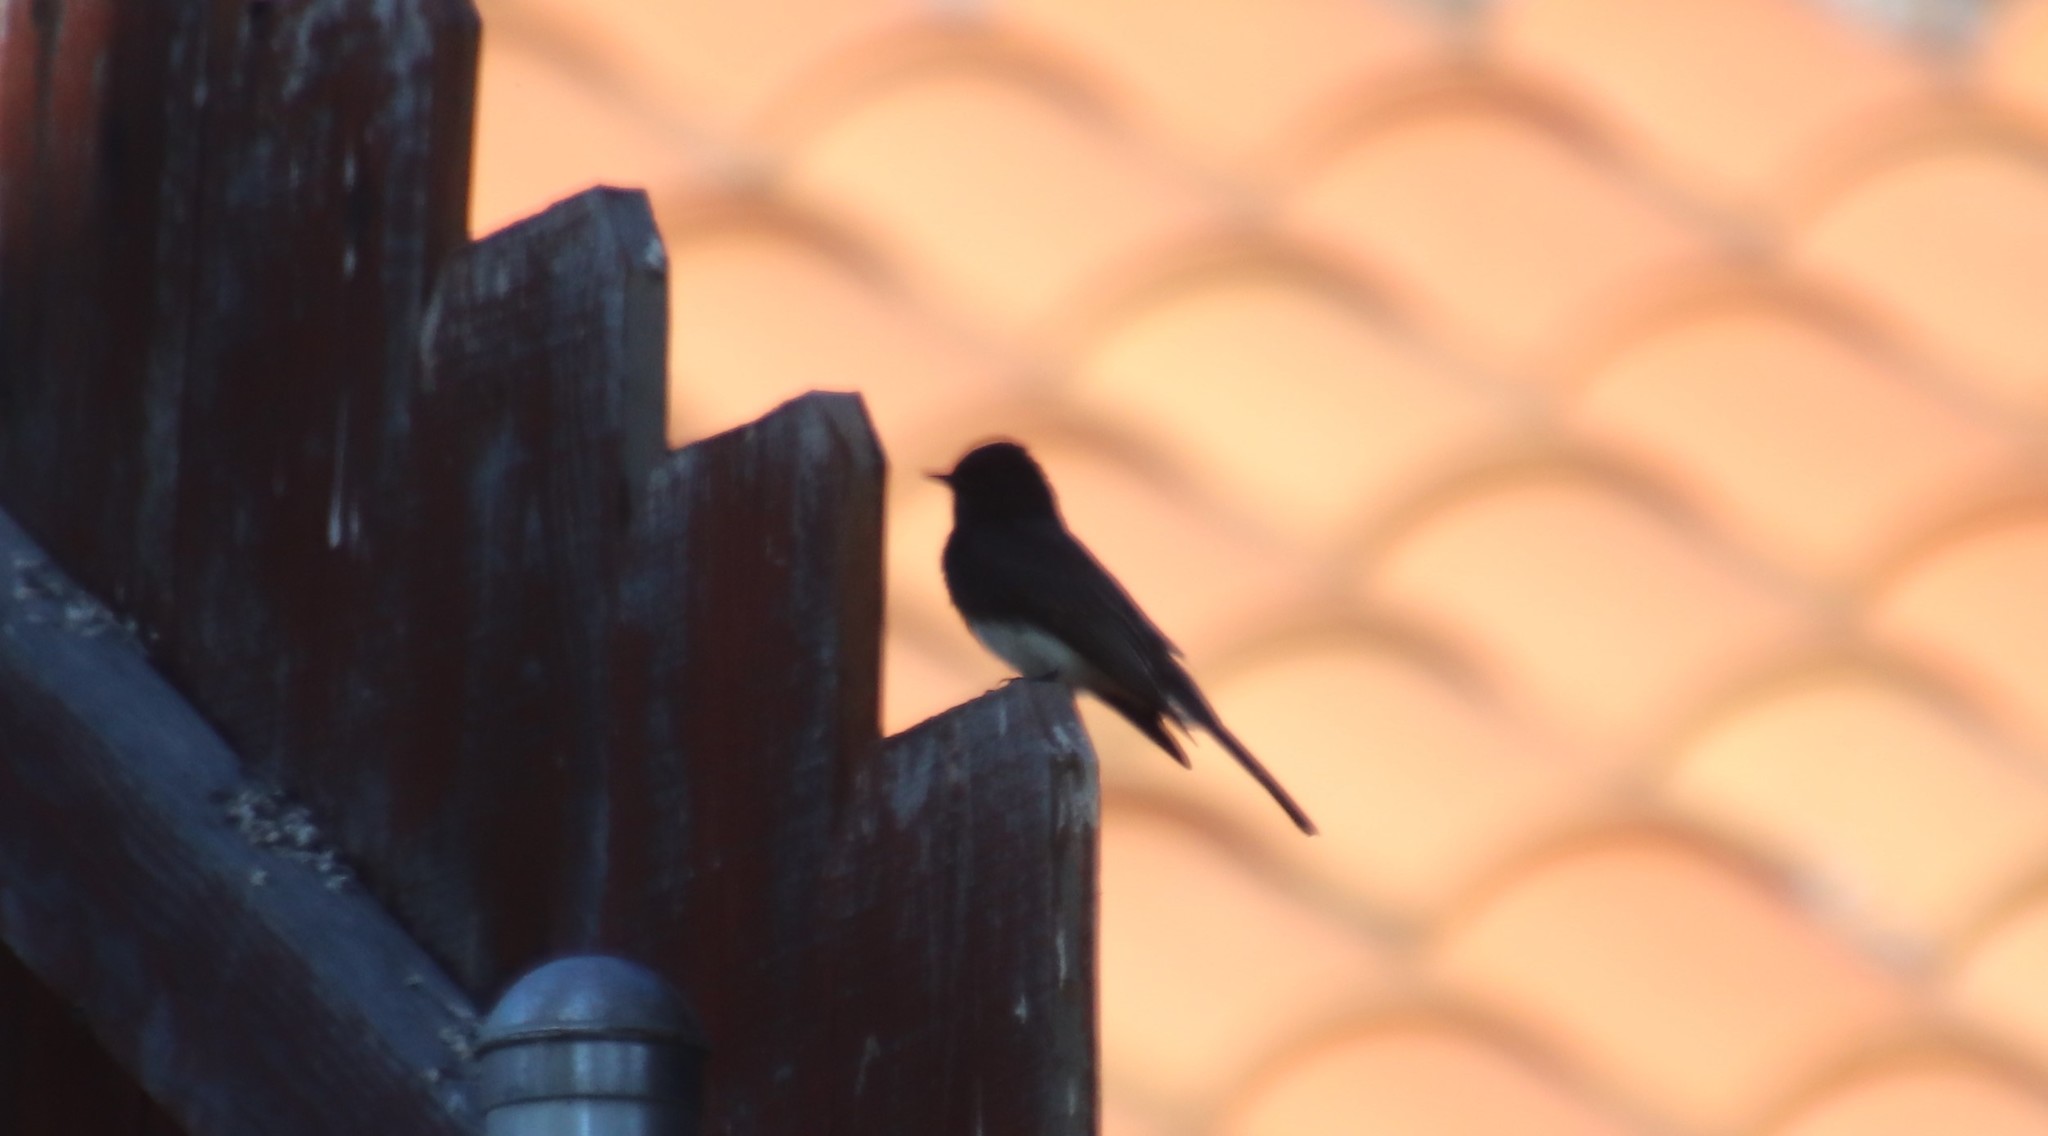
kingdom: Animalia
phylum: Chordata
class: Aves
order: Passeriformes
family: Tyrannidae
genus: Sayornis
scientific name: Sayornis nigricans
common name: Black phoebe
